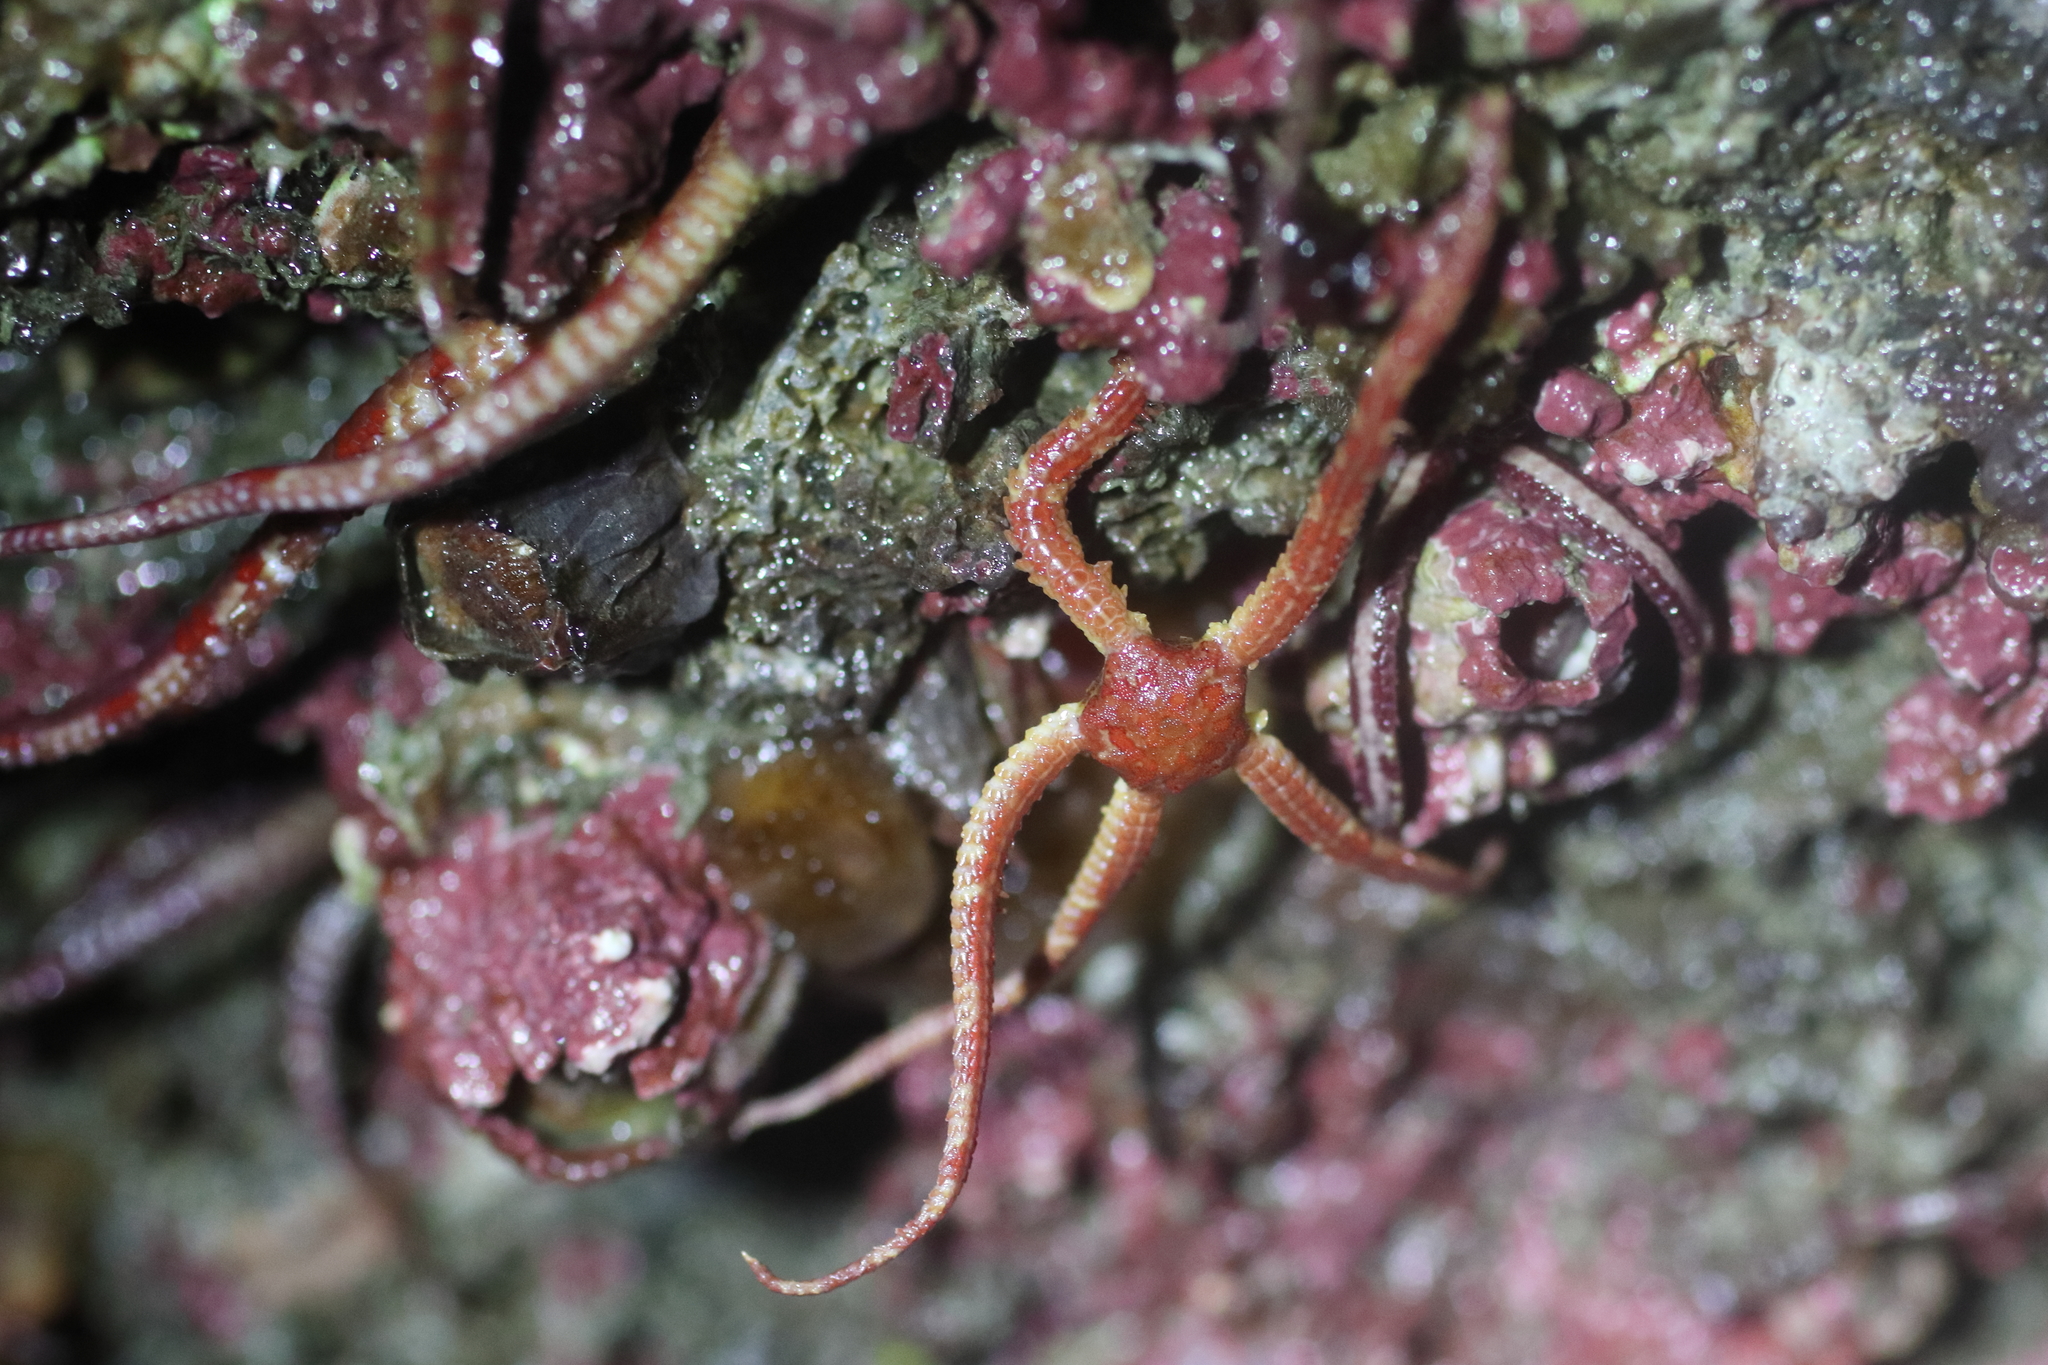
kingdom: Animalia
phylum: Echinodermata
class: Ophiuroidea
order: Amphilepidida
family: Ophiopholidae
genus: Ophiopholis
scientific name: Ophiopholis kennerlyi
